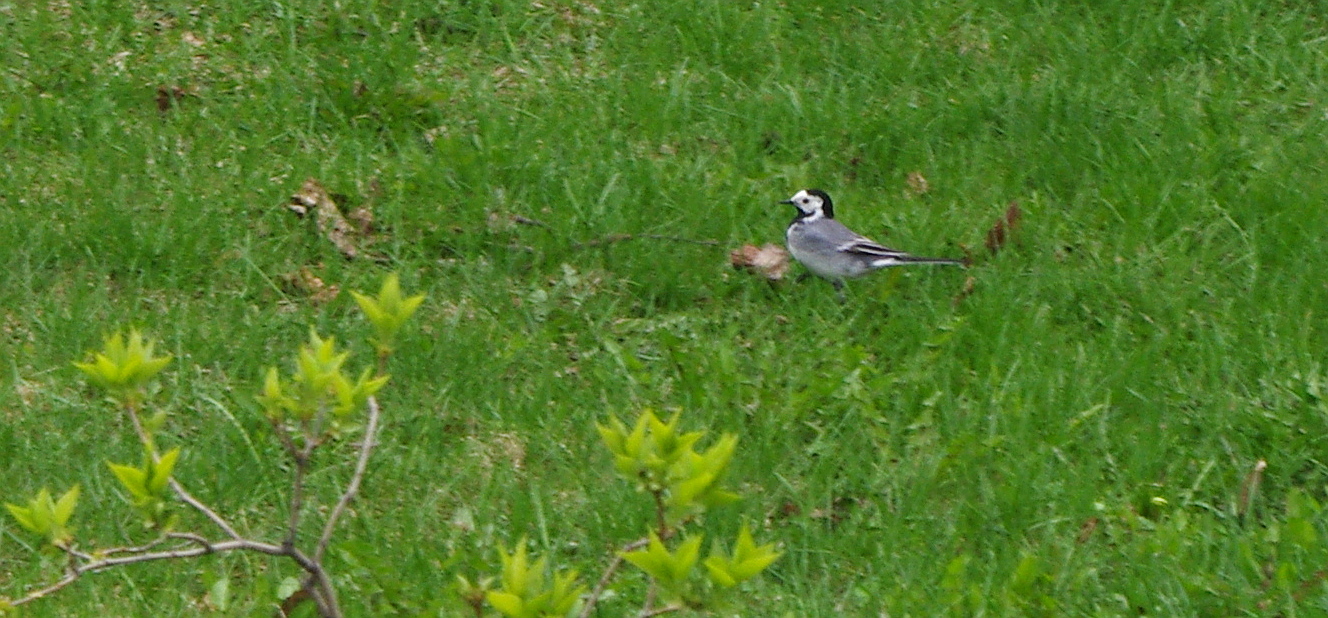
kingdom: Animalia
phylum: Chordata
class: Aves
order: Passeriformes
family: Motacillidae
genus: Motacilla
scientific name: Motacilla alba
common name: White wagtail
